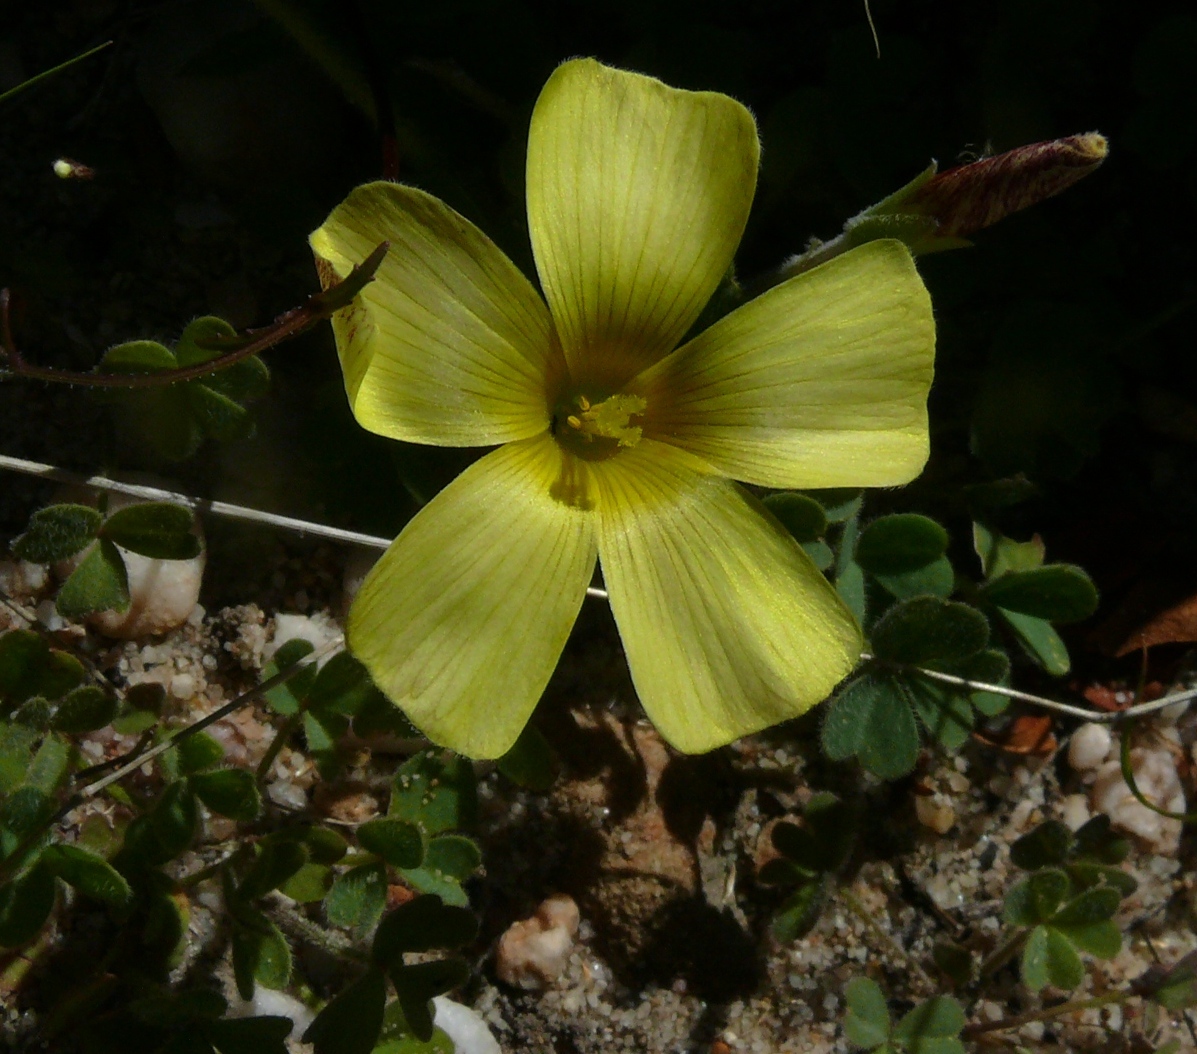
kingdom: Plantae
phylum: Tracheophyta
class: Magnoliopsida
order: Oxalidales
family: Oxalidaceae
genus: Oxalis
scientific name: Oxalis obtusa
